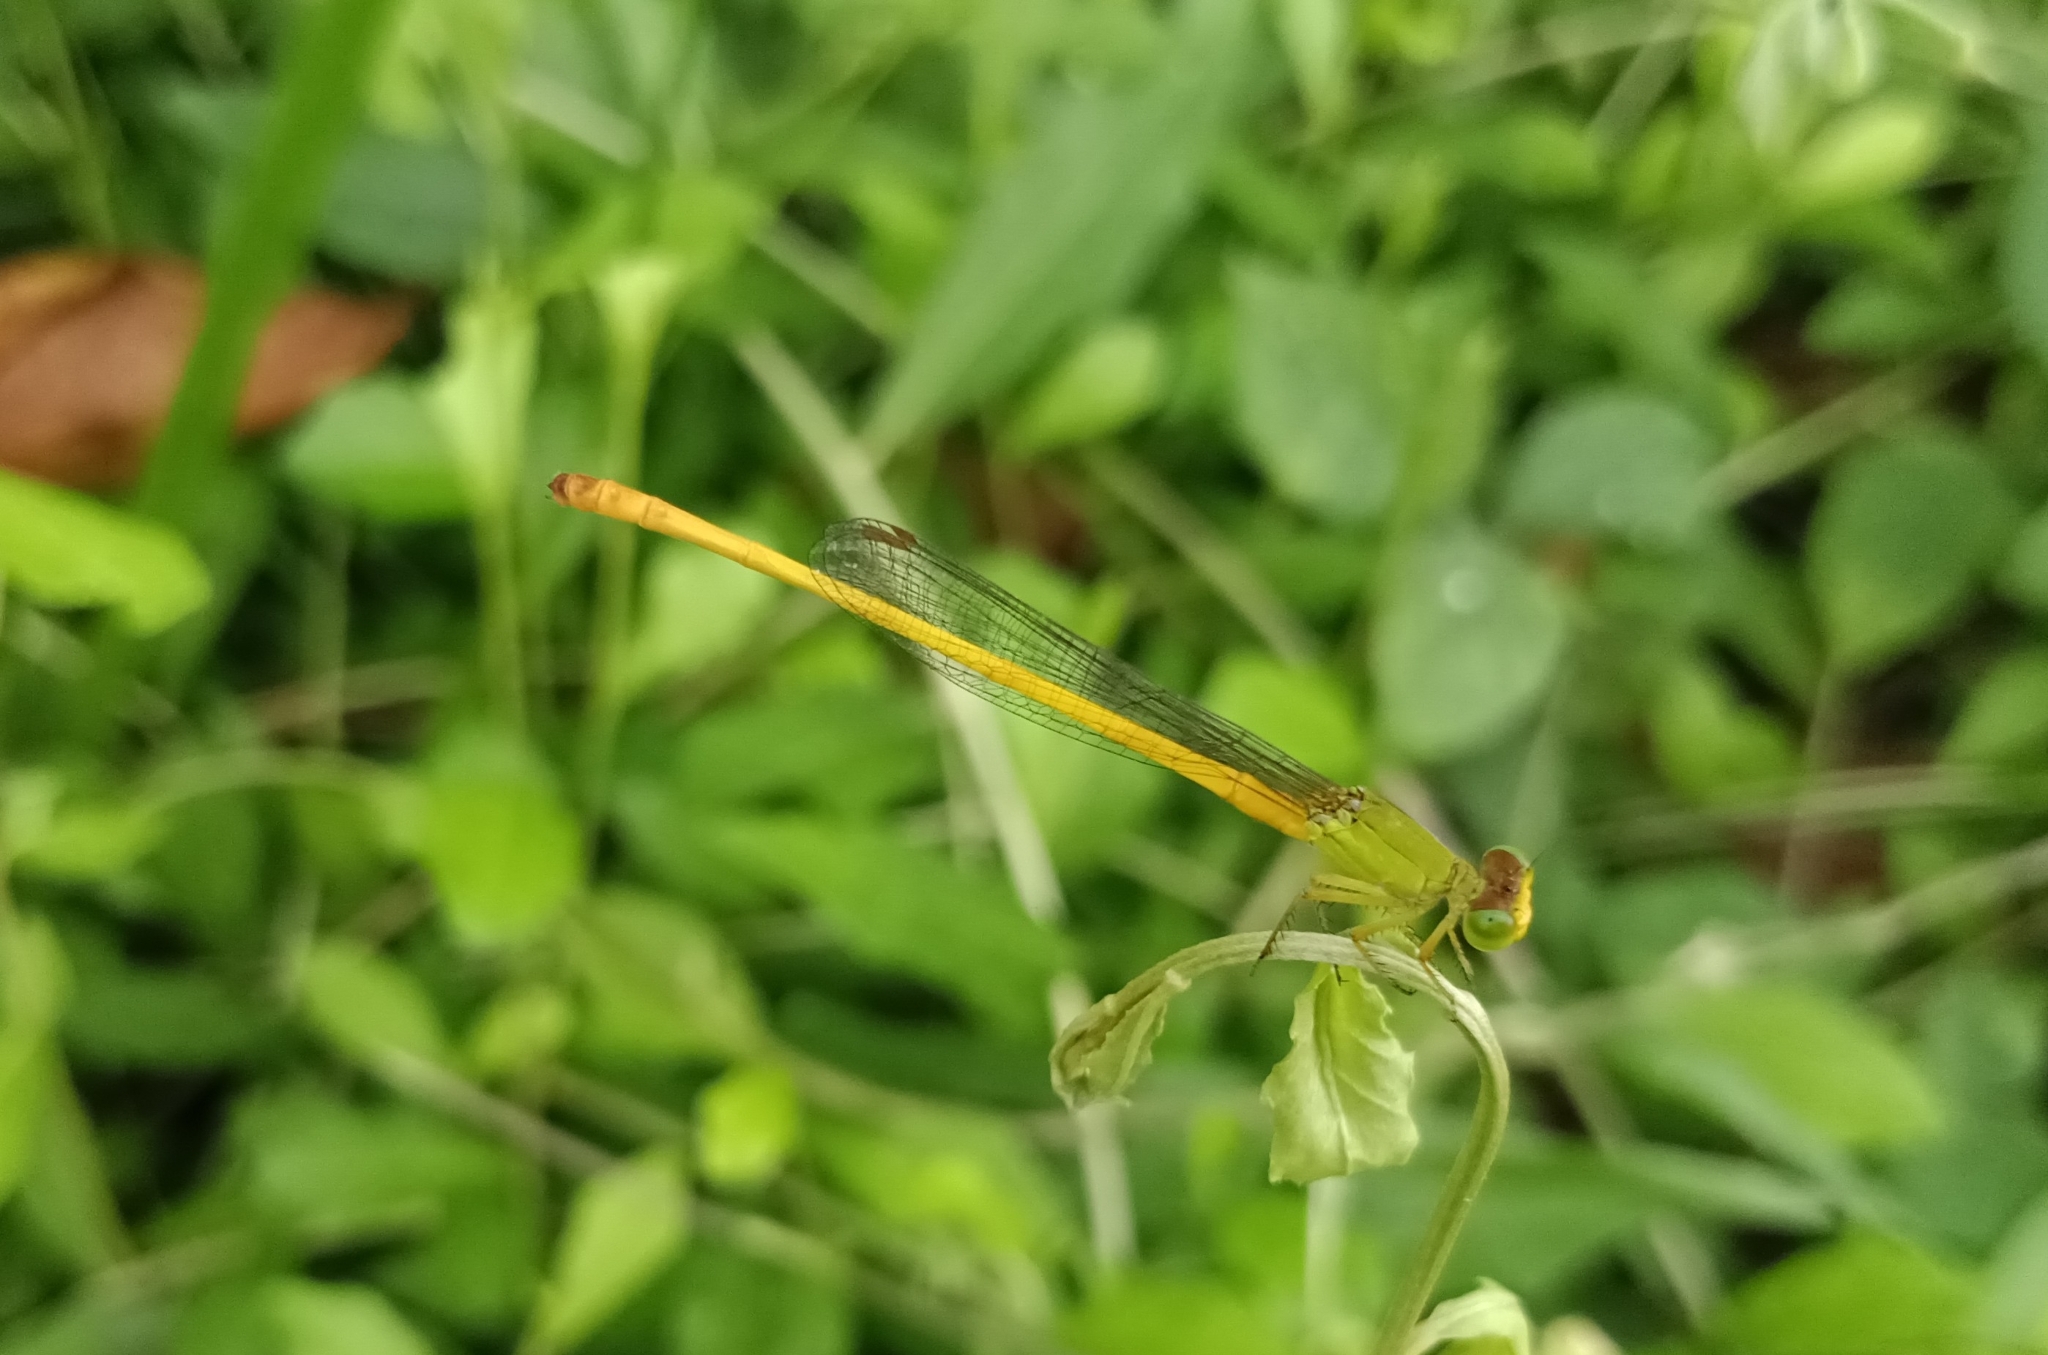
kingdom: Animalia
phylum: Arthropoda
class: Insecta
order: Odonata
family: Coenagrionidae
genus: Ceriagrion
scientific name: Ceriagrion coromandelianum
